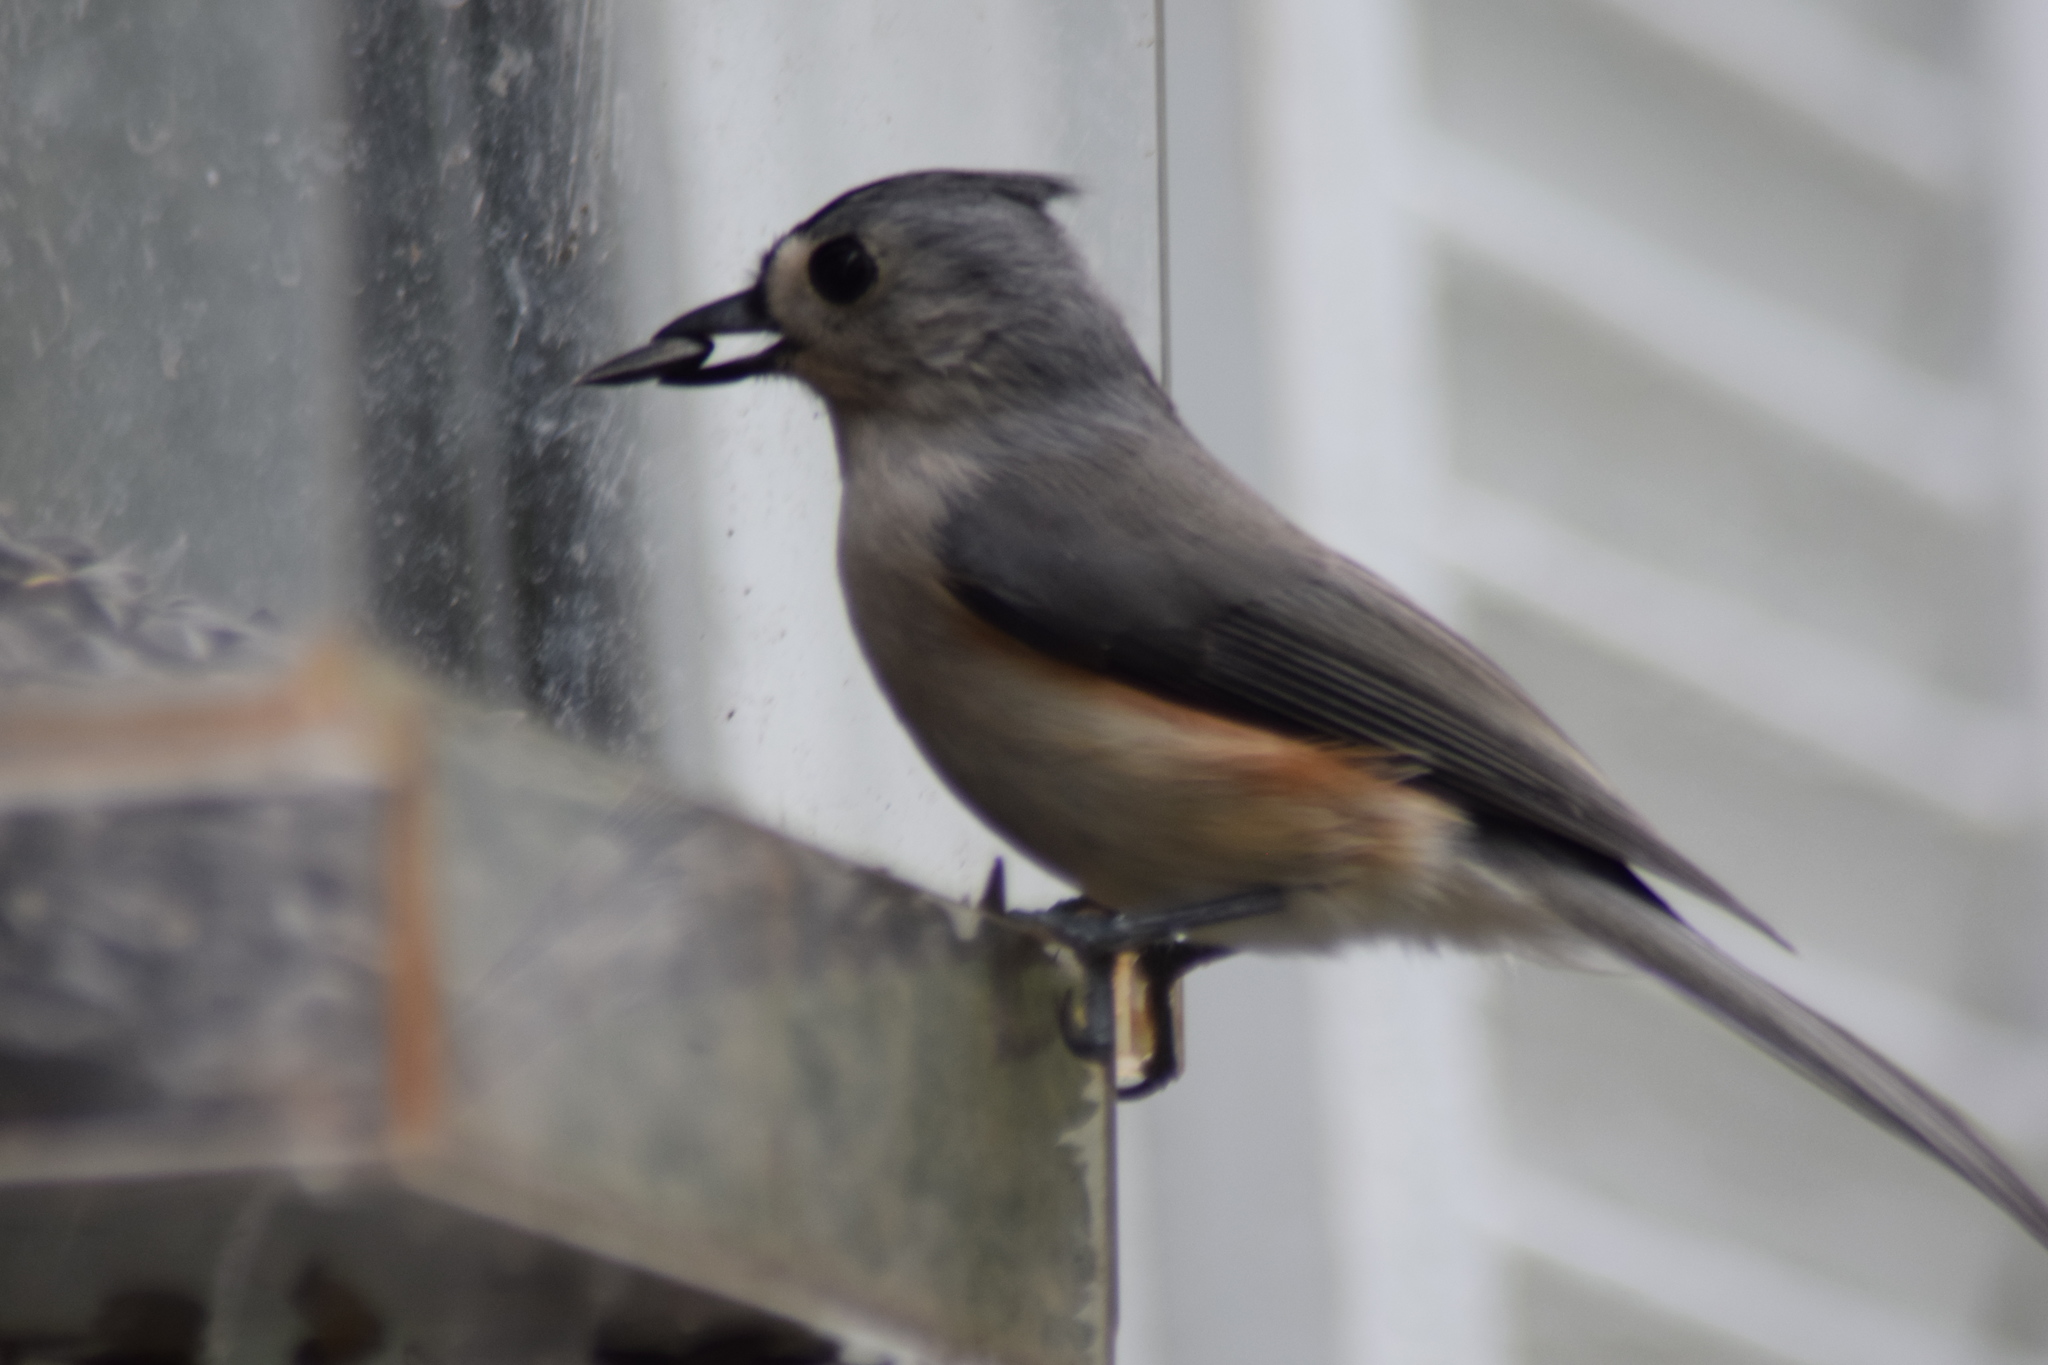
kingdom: Animalia
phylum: Chordata
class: Aves
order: Passeriformes
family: Paridae
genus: Baeolophus
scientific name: Baeolophus bicolor
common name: Tufted titmouse
